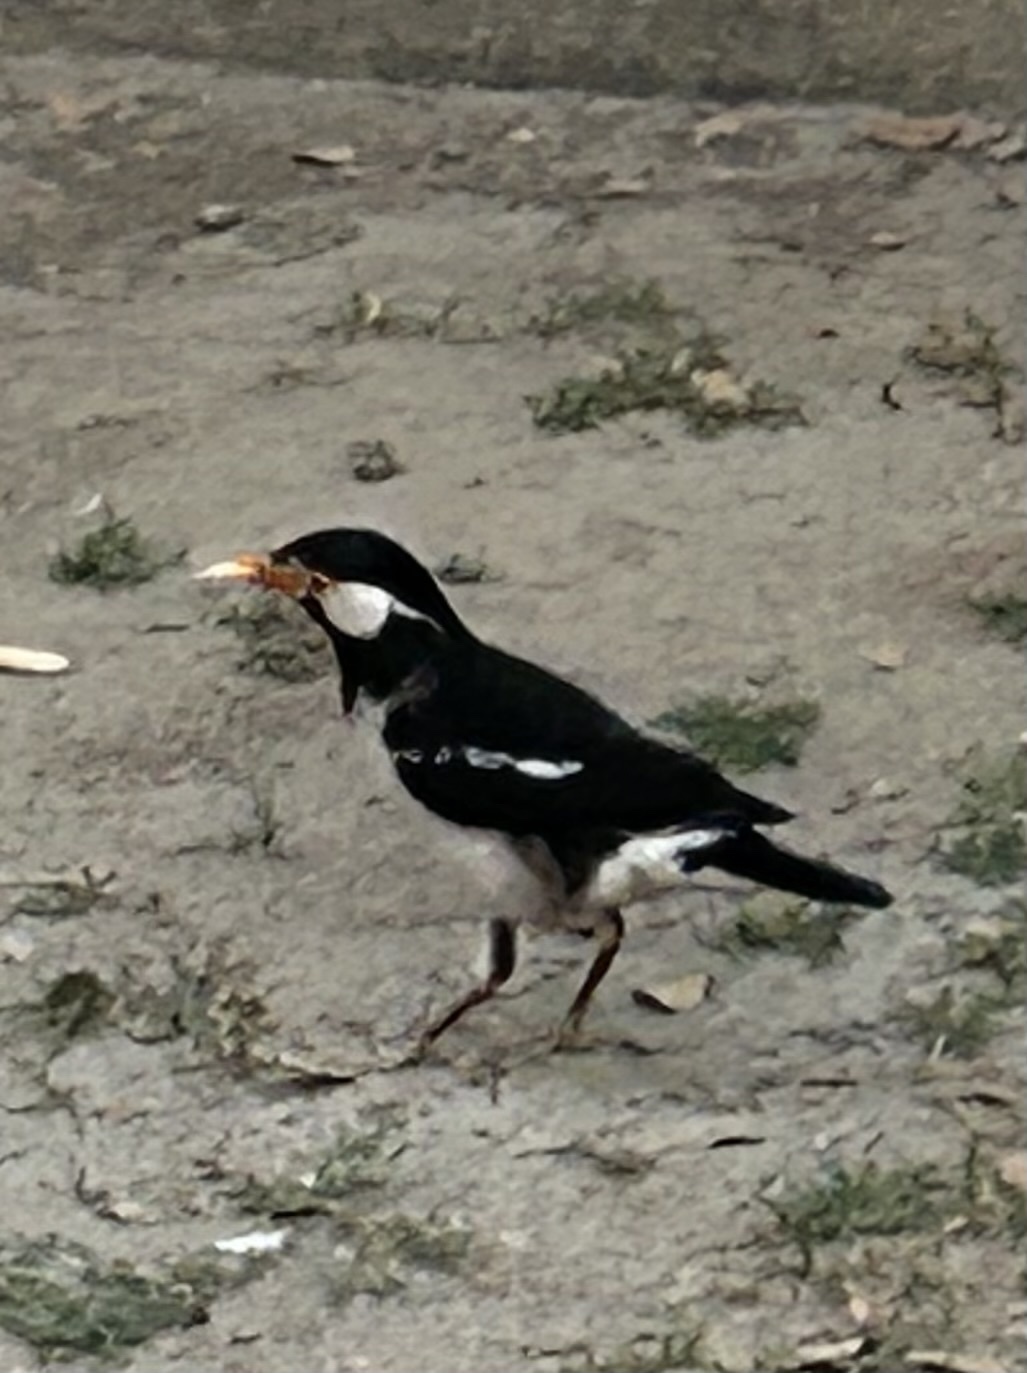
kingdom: Animalia
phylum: Chordata
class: Aves
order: Passeriformes
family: Sturnidae
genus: Gracupica
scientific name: Gracupica contra
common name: Pied myna
